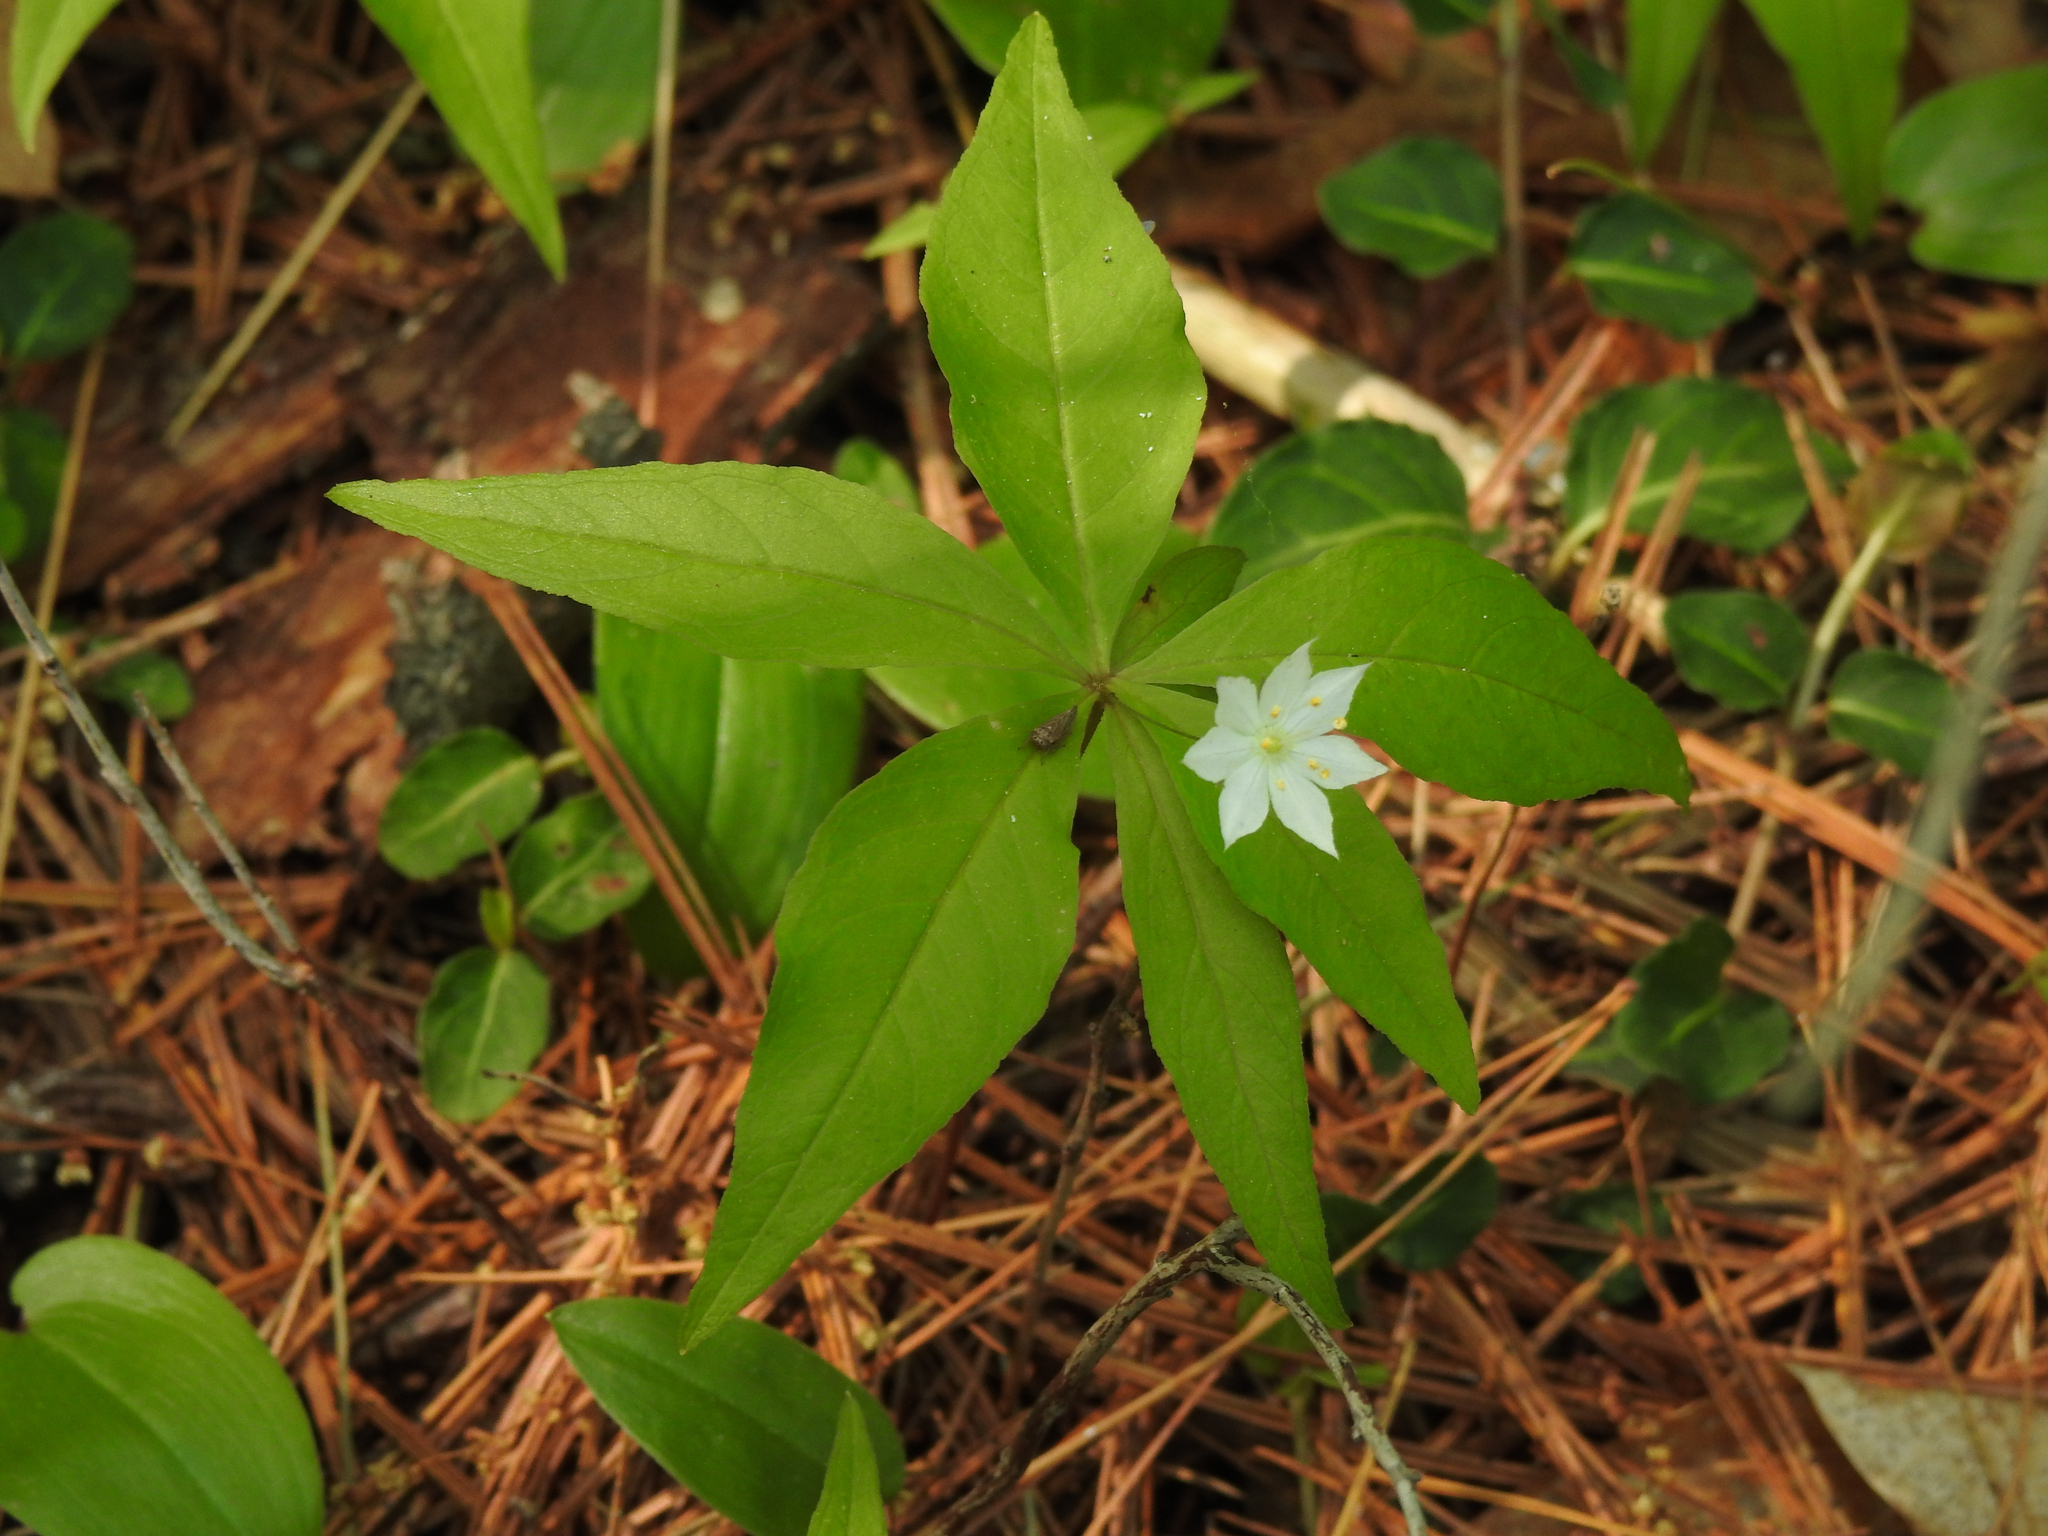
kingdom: Plantae
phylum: Tracheophyta
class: Magnoliopsida
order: Ericales
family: Primulaceae
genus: Lysimachia
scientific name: Lysimachia borealis
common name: American starflower
